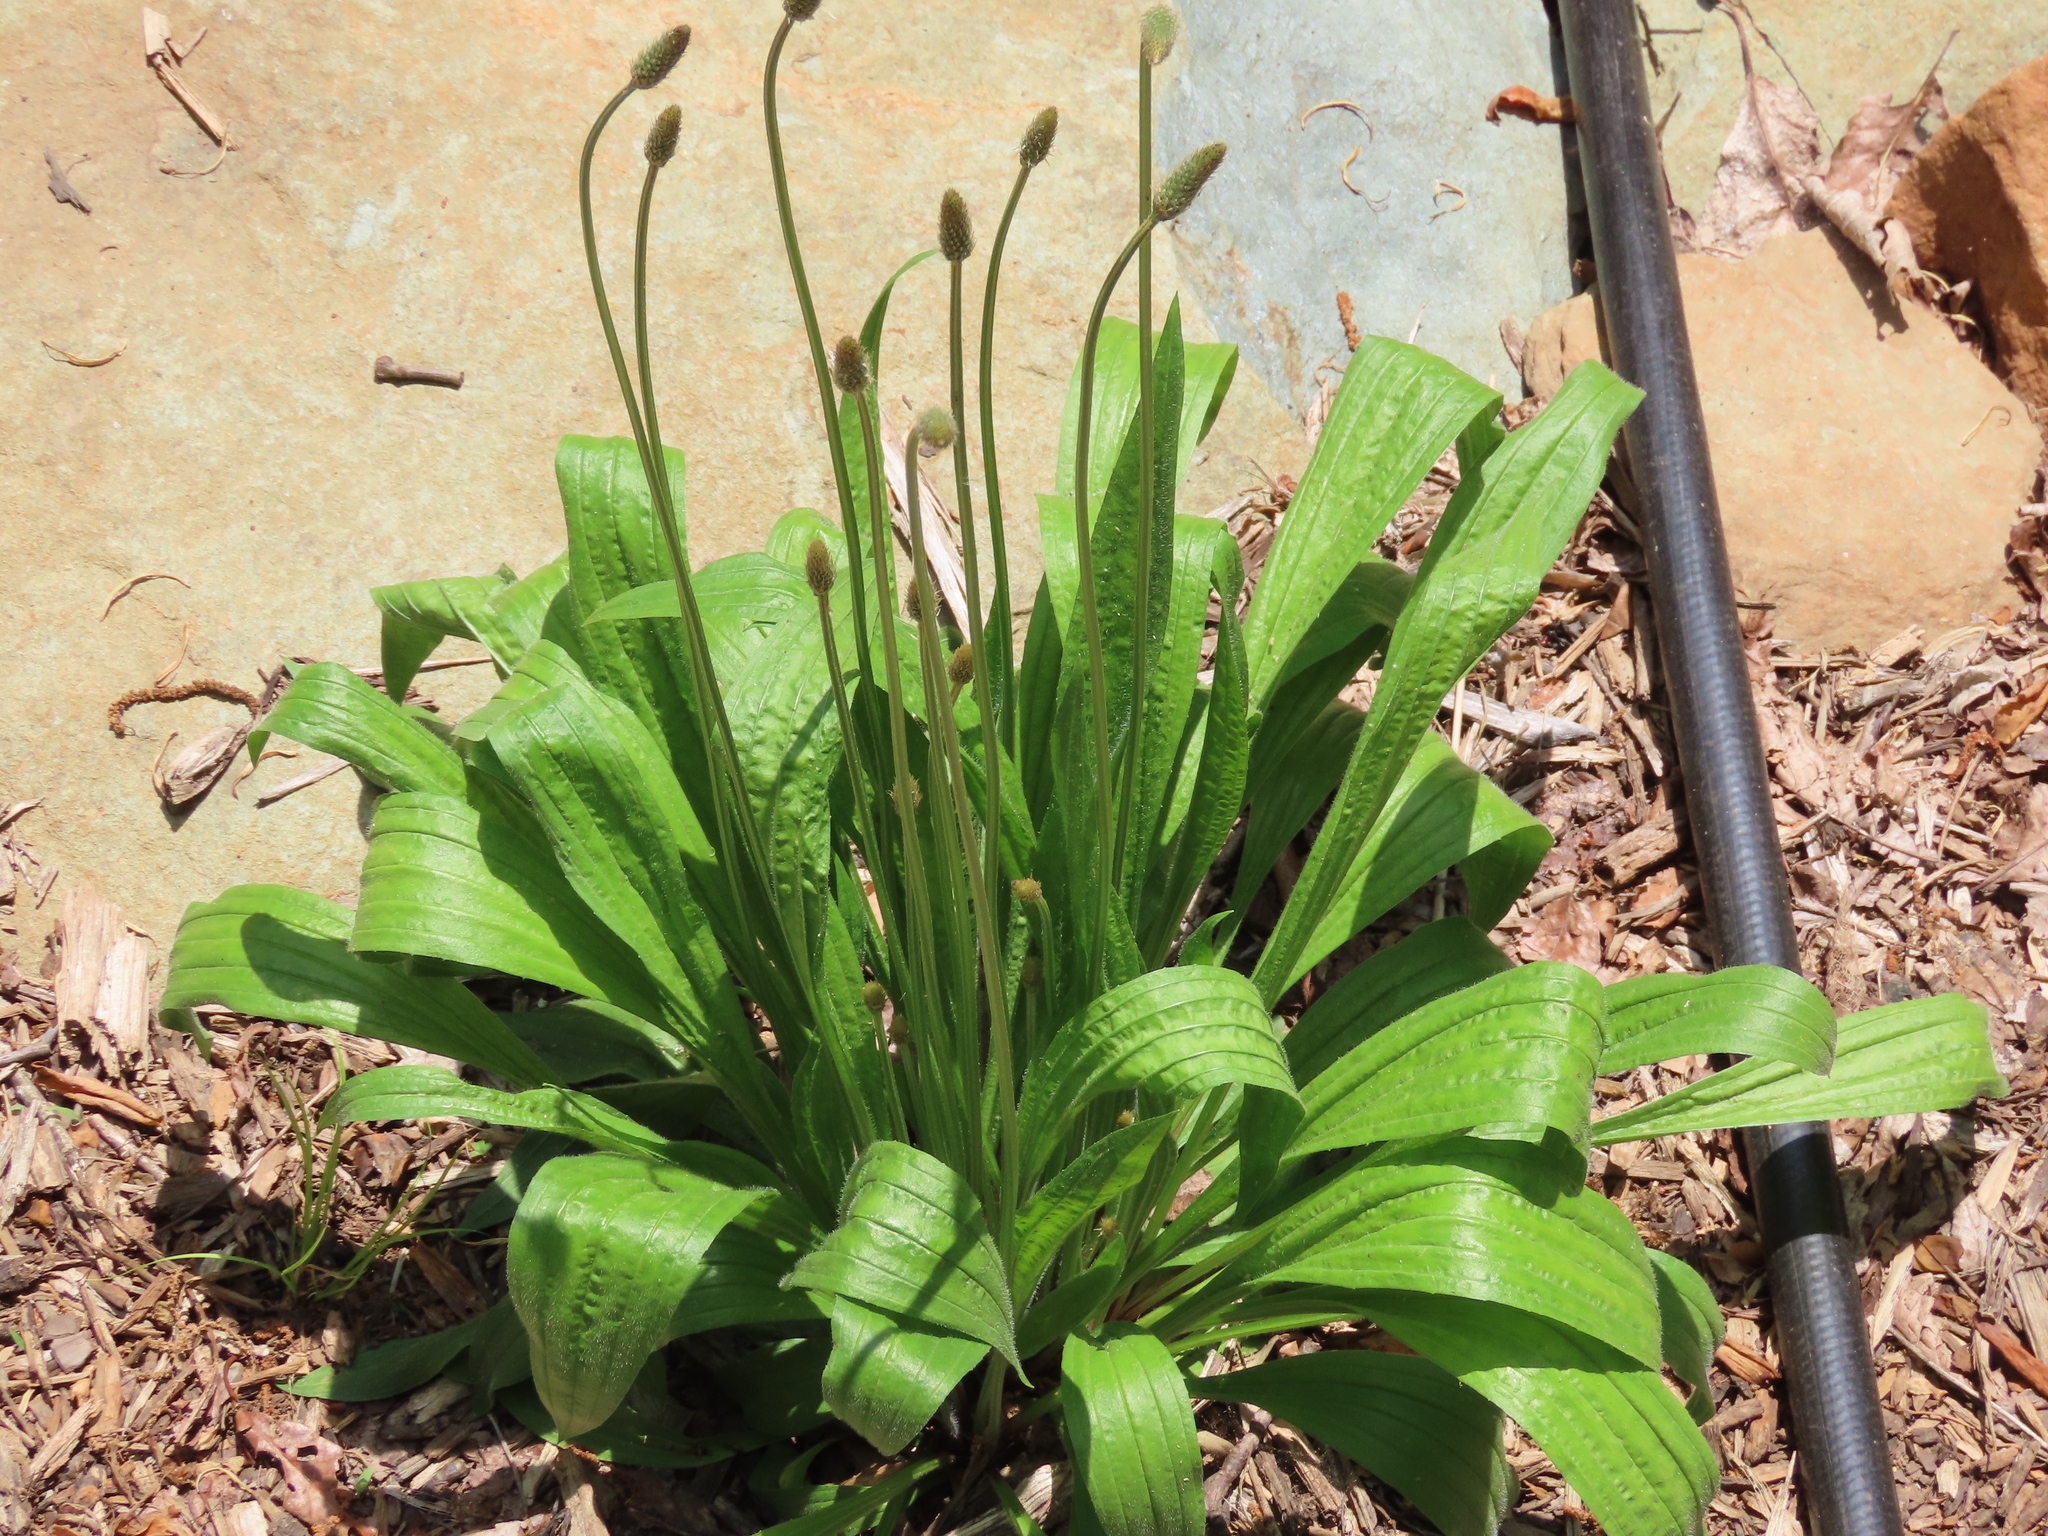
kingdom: Plantae
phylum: Tracheophyta
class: Magnoliopsida
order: Lamiales
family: Plantaginaceae
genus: Plantago
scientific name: Plantago lanceolata
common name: Ribwort plantain
